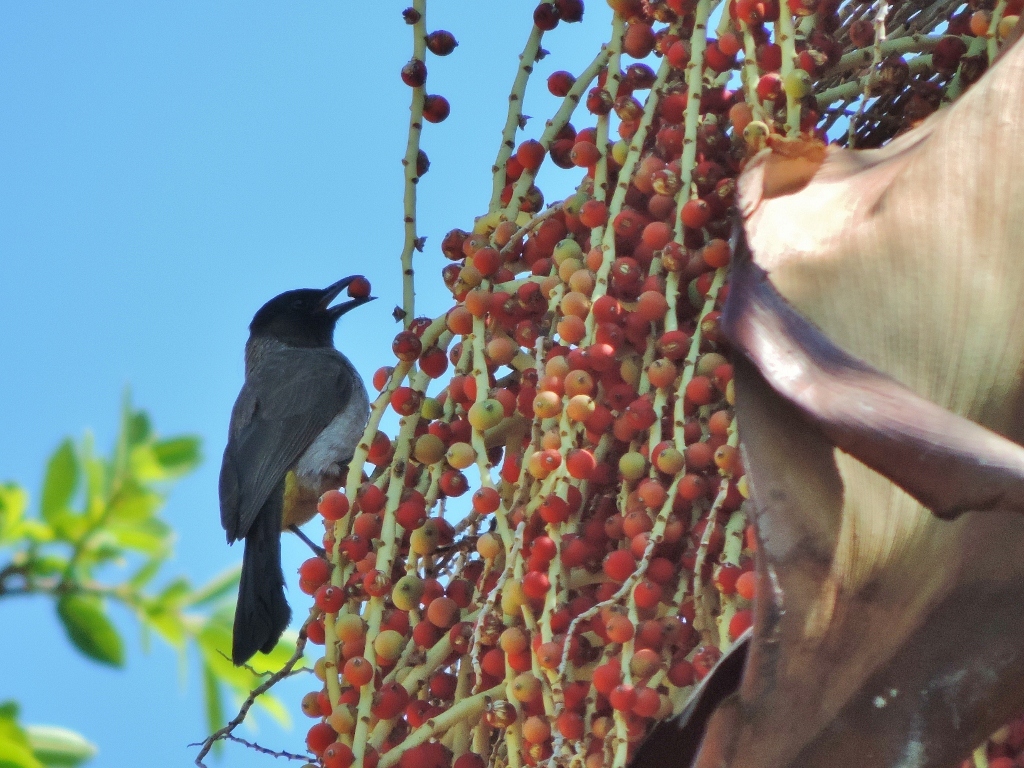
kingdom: Animalia
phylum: Chordata
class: Aves
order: Passeriformes
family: Pycnonotidae
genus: Pycnonotus
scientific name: Pycnonotus barbatus
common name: Common bulbul
